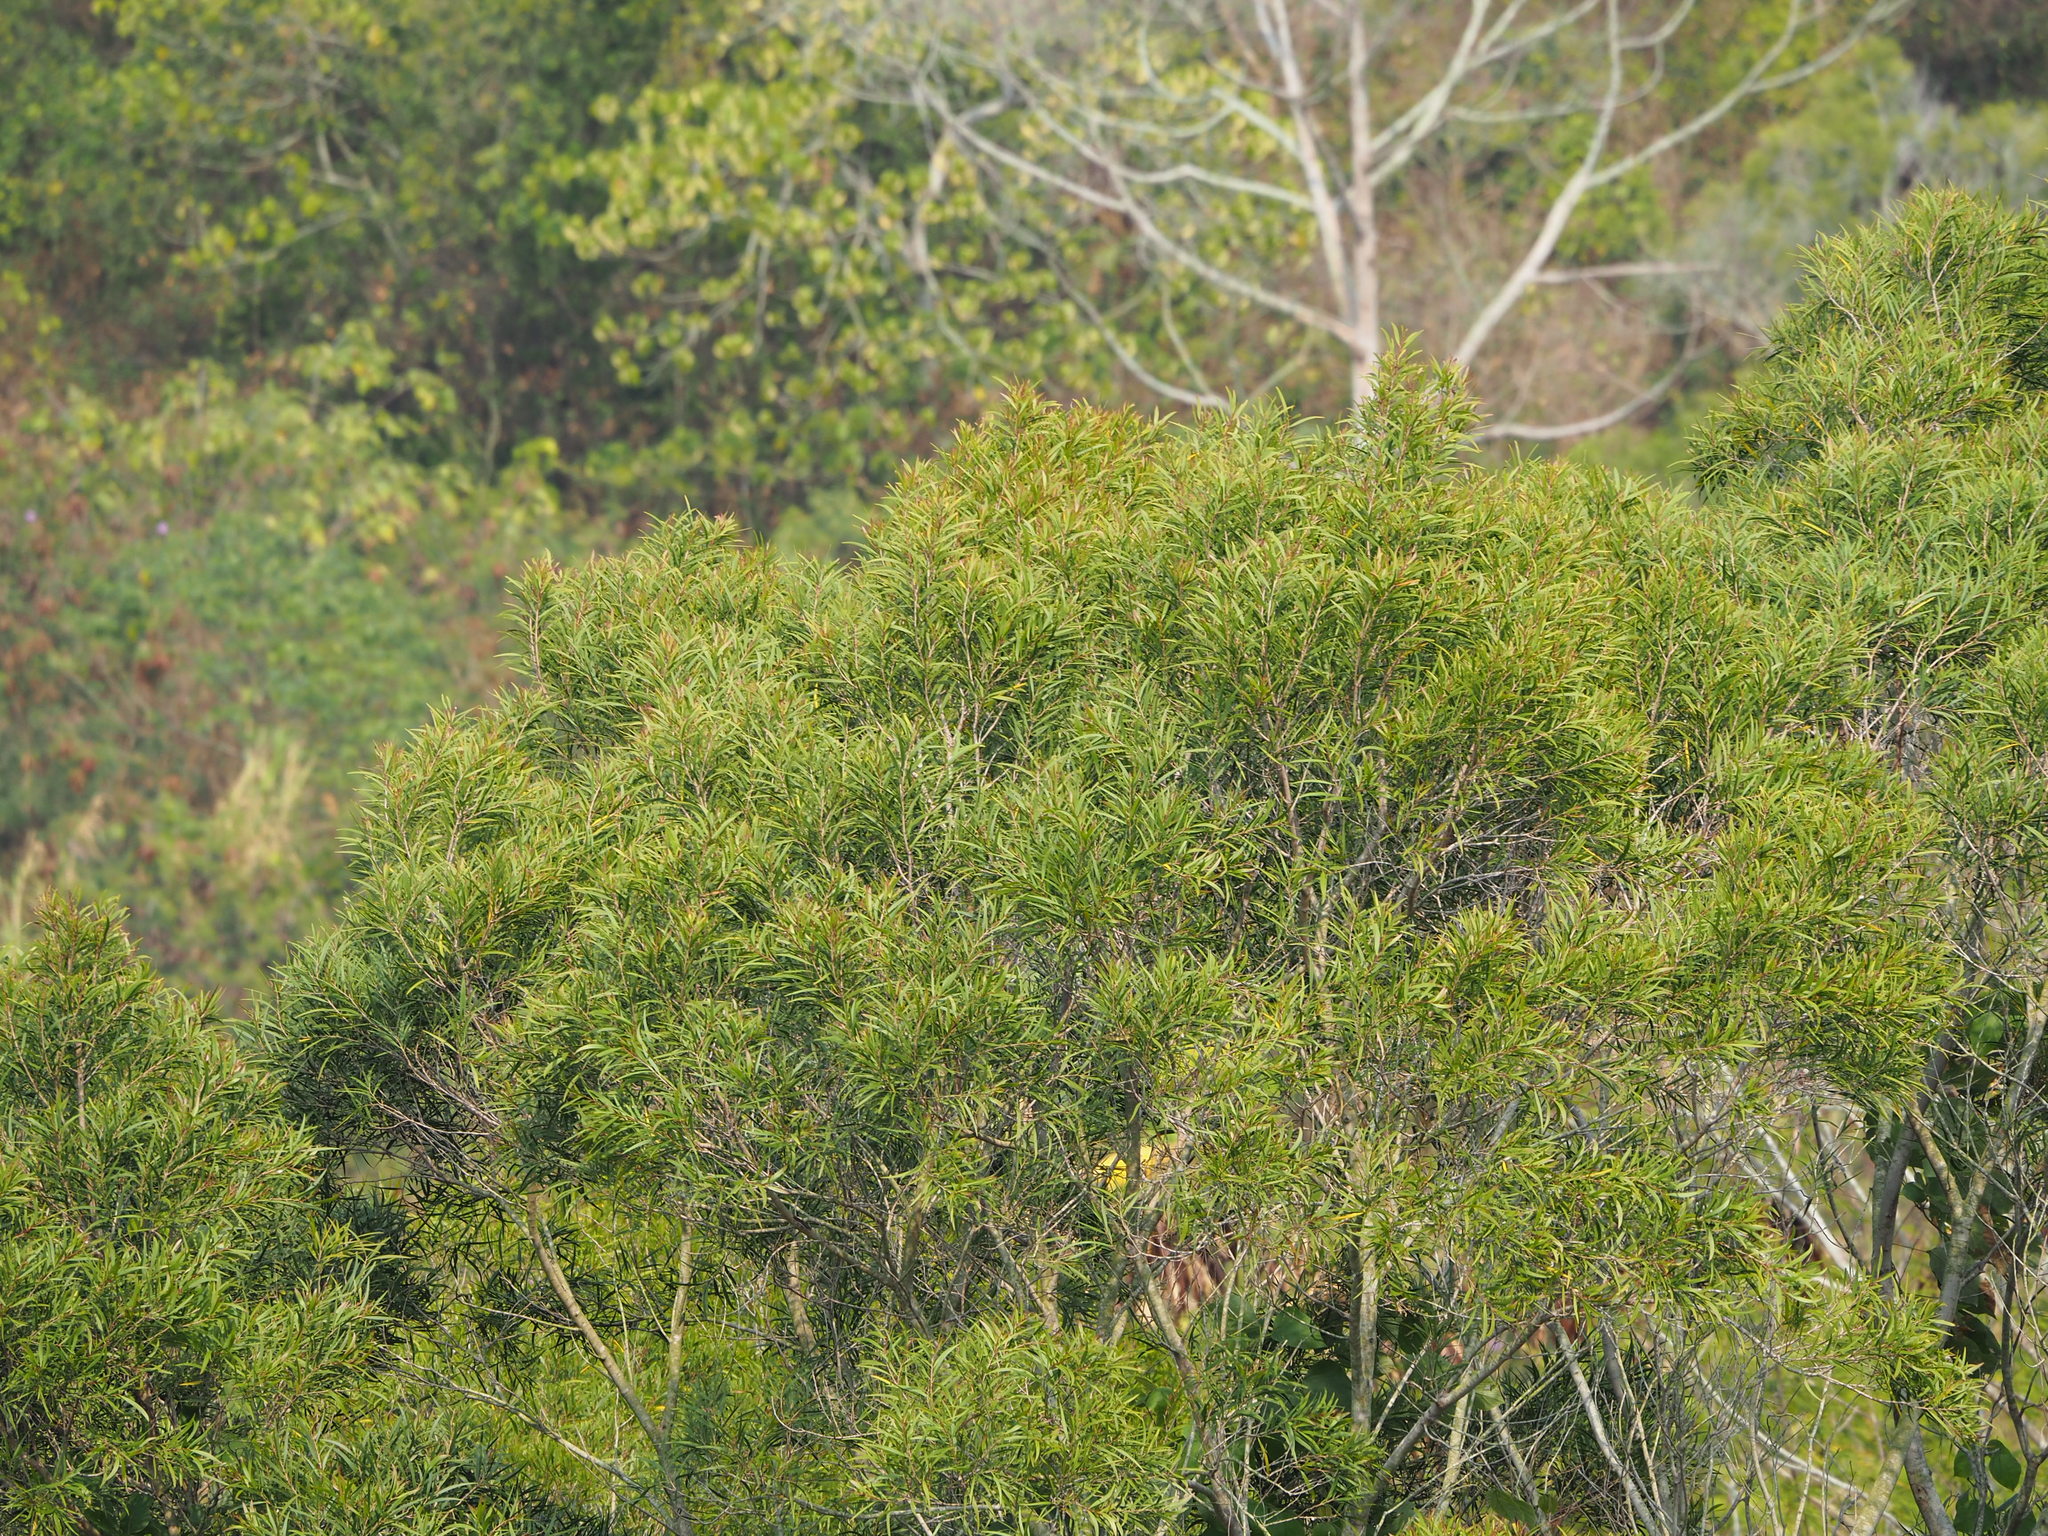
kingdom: Plantae
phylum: Tracheophyta
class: Magnoliopsida
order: Fabales
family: Fabaceae
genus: Acacia
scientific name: Acacia confusa
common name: Formosan koa
